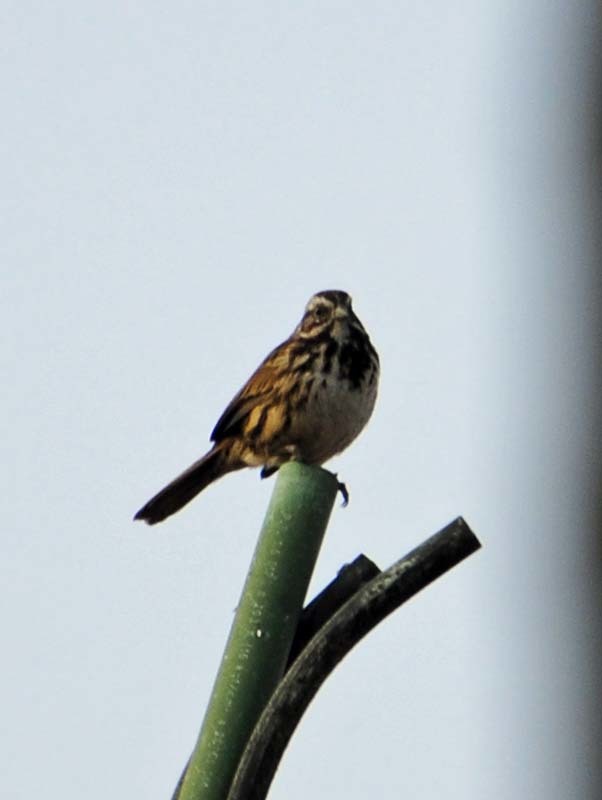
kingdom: Animalia
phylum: Chordata
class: Aves
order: Passeriformes
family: Passerellidae
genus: Melospiza
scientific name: Melospiza melodia
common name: Song sparrow
